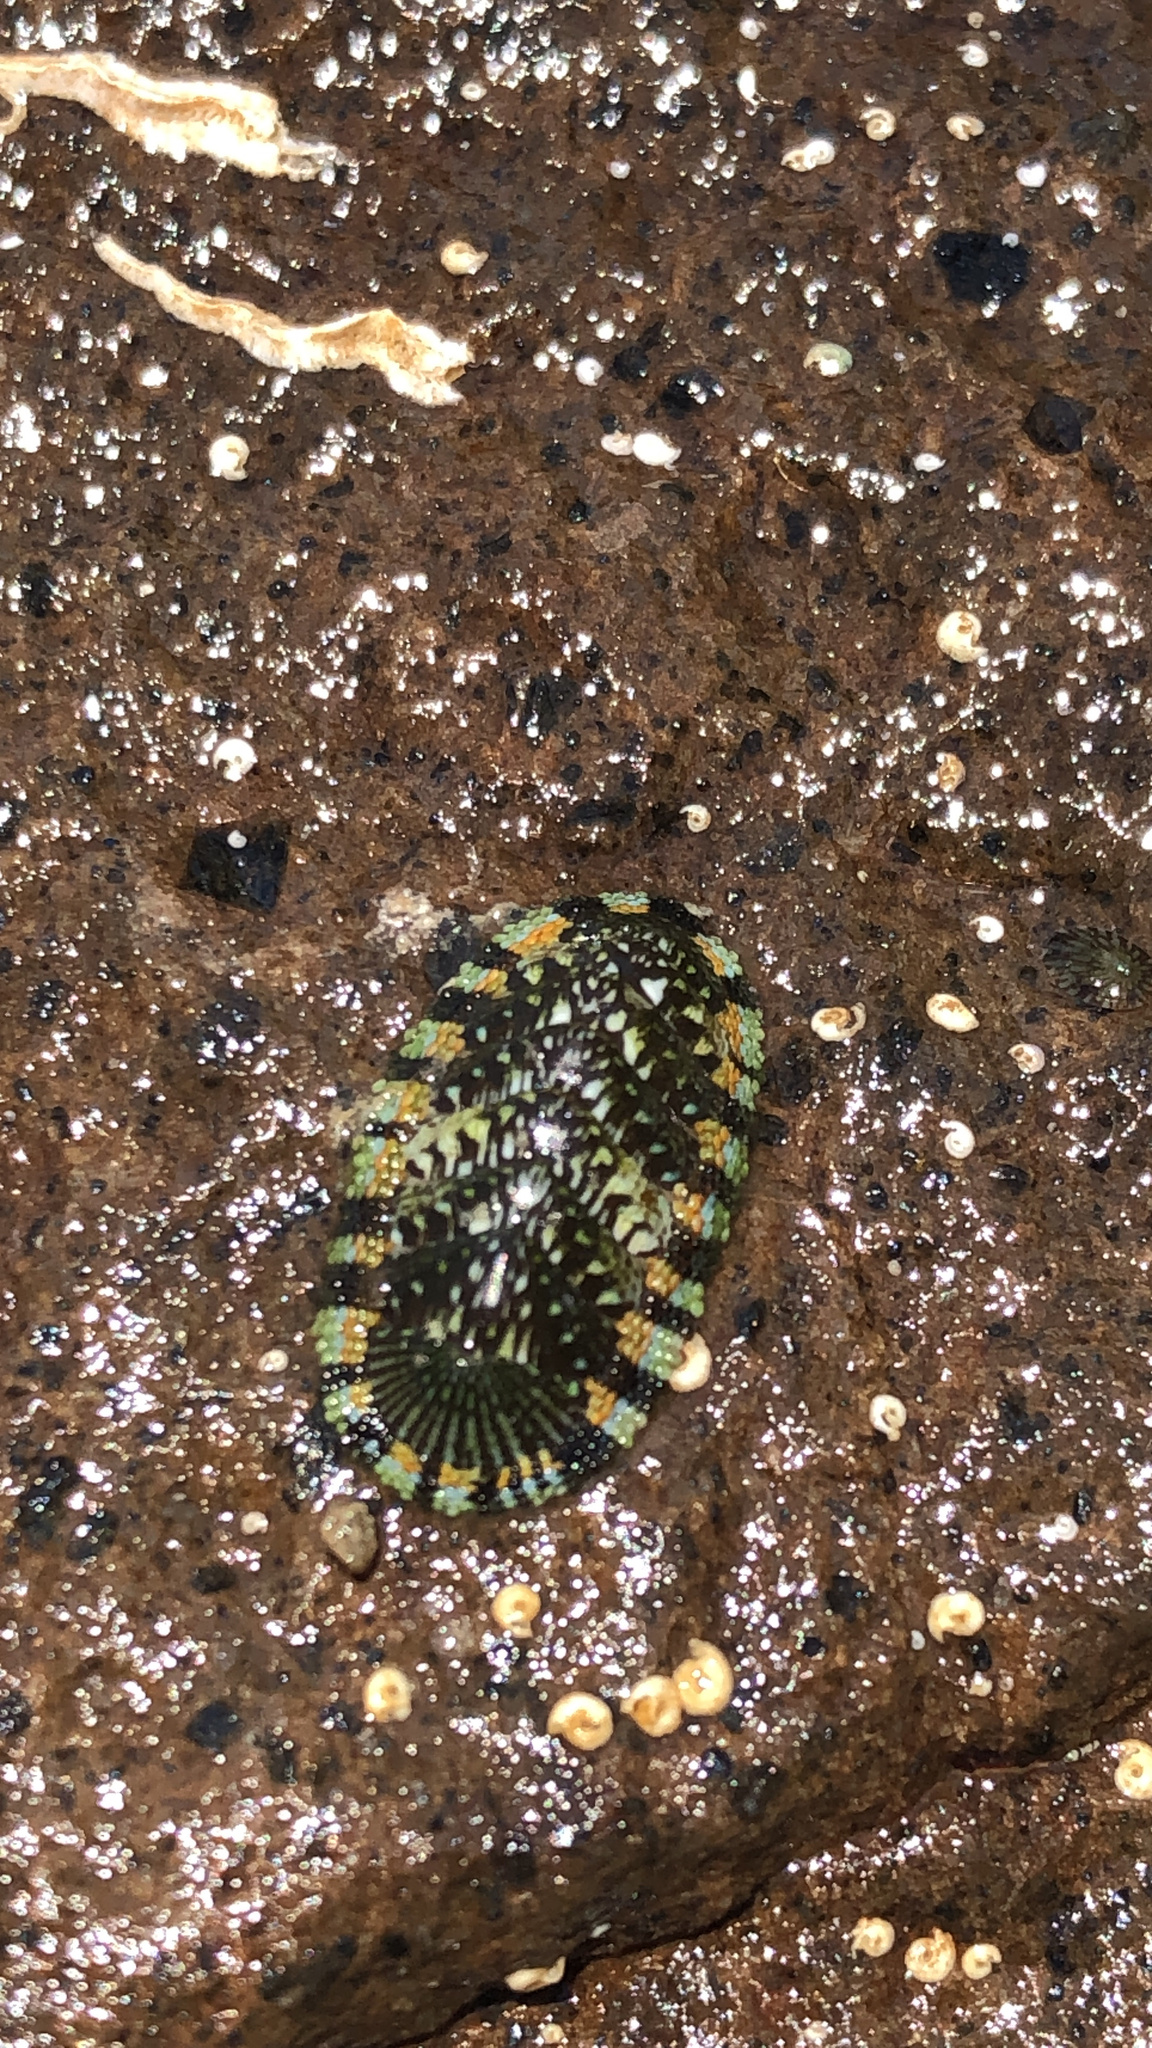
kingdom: Animalia
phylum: Mollusca
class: Polyplacophora
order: Chitonida
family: Chitonidae
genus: Sypharochiton
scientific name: Sypharochiton sinclairi
